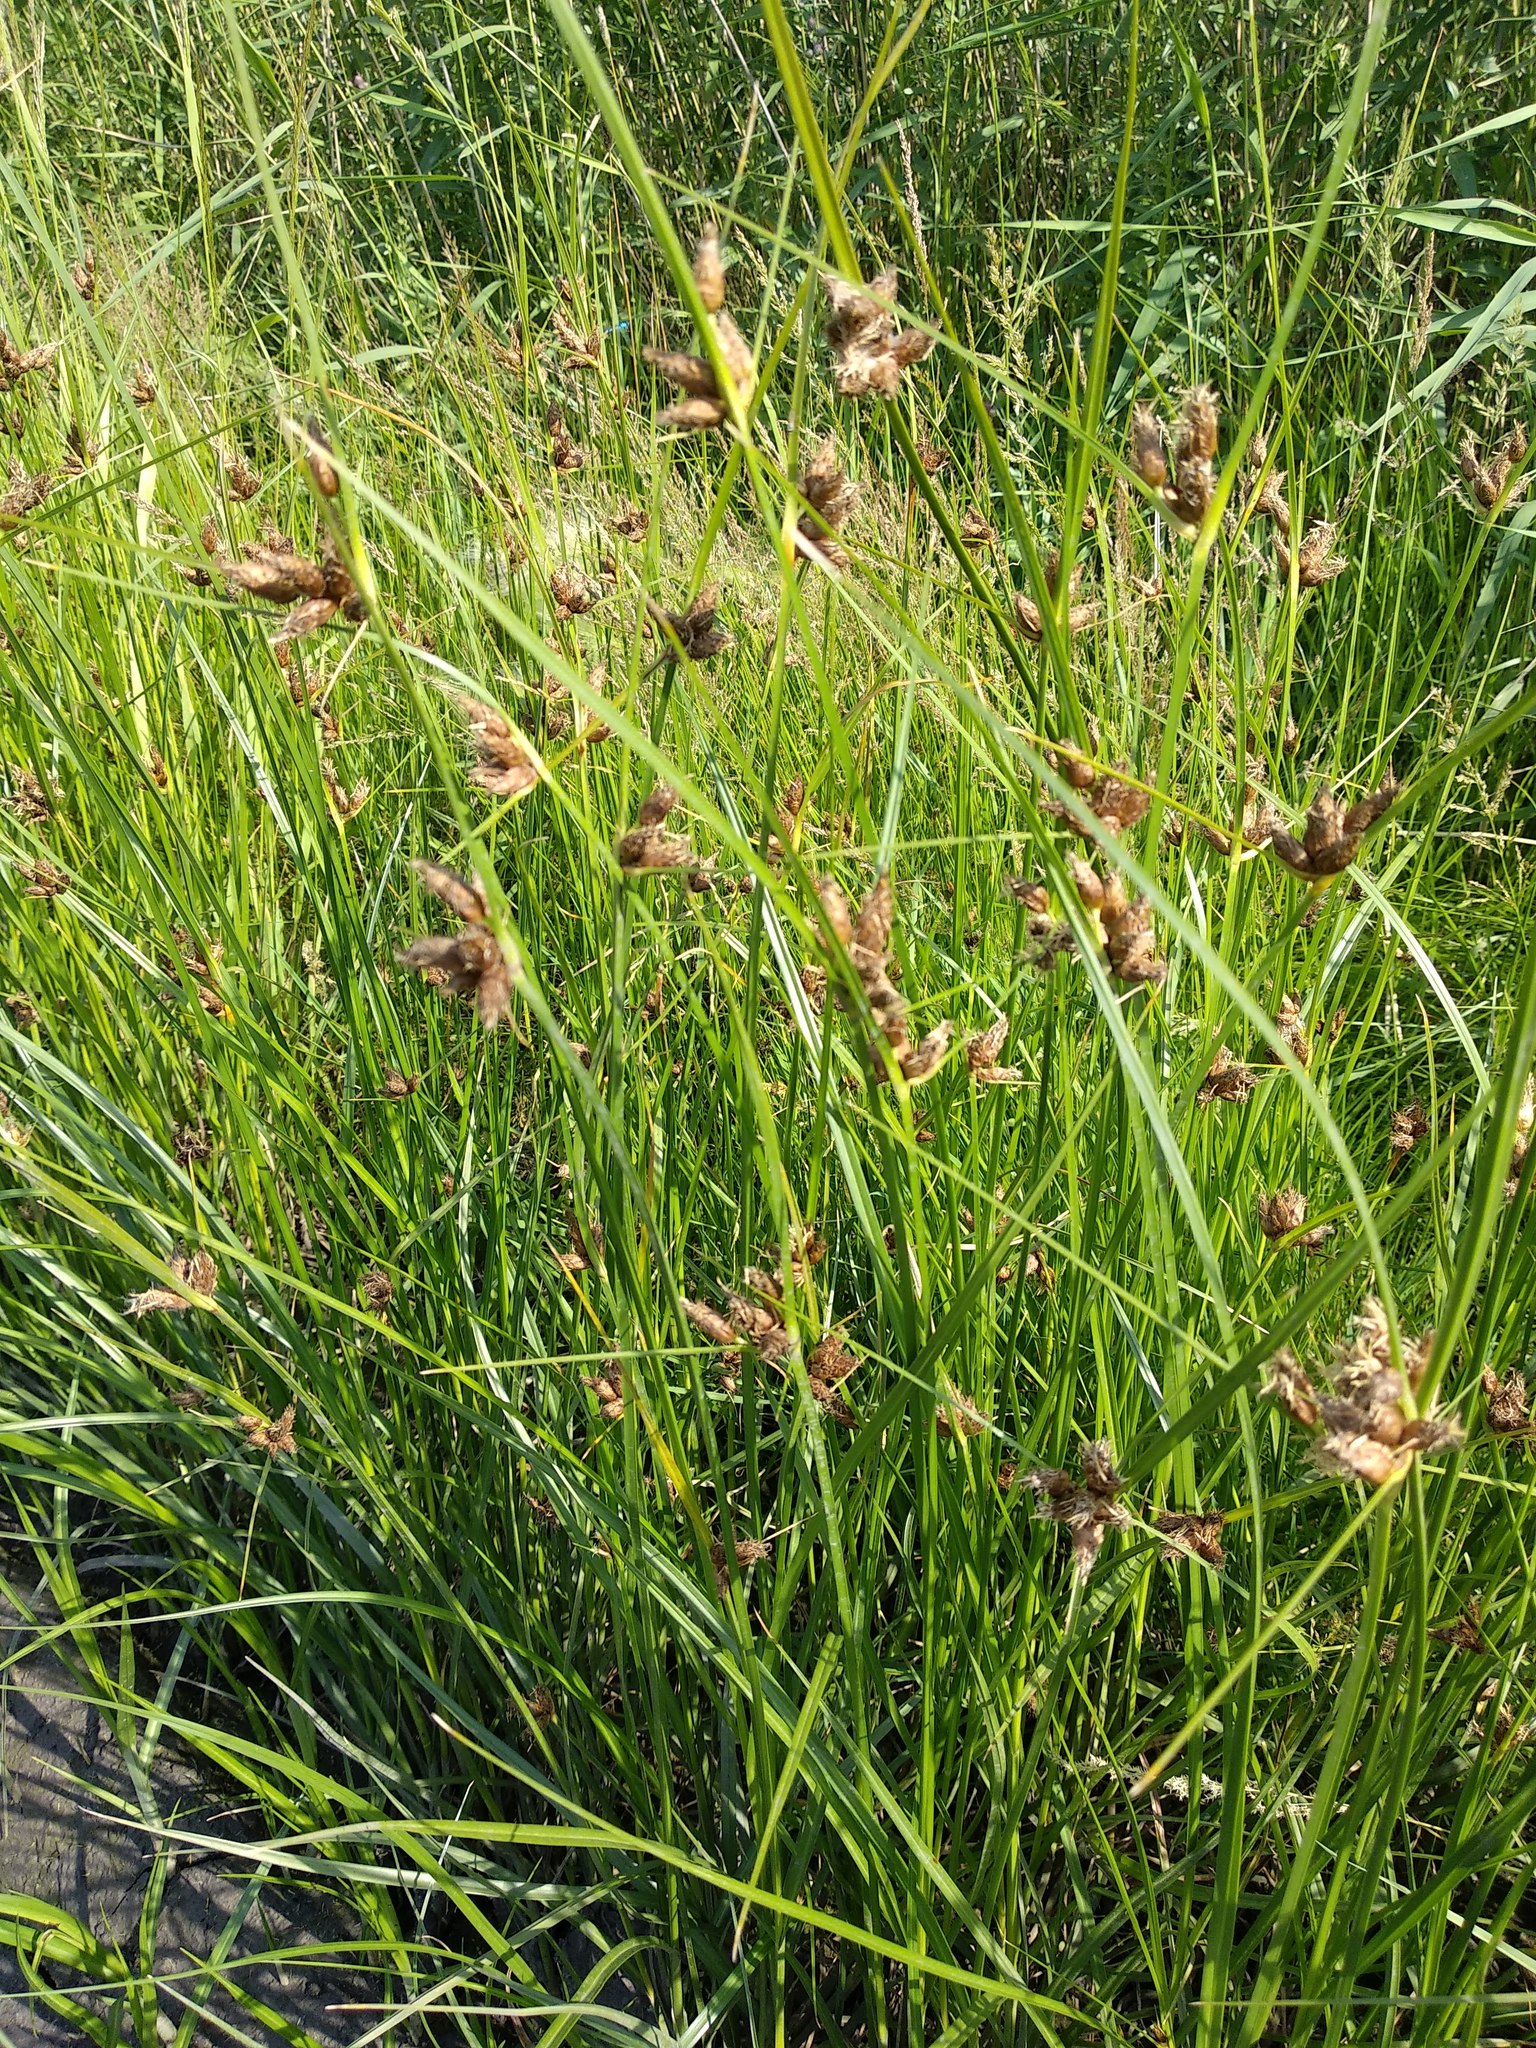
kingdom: Plantae
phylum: Tracheophyta
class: Liliopsida
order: Poales
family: Cyperaceae
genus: Bolboschoenus
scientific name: Bolboschoenus maritimus
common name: Sea club-rush
